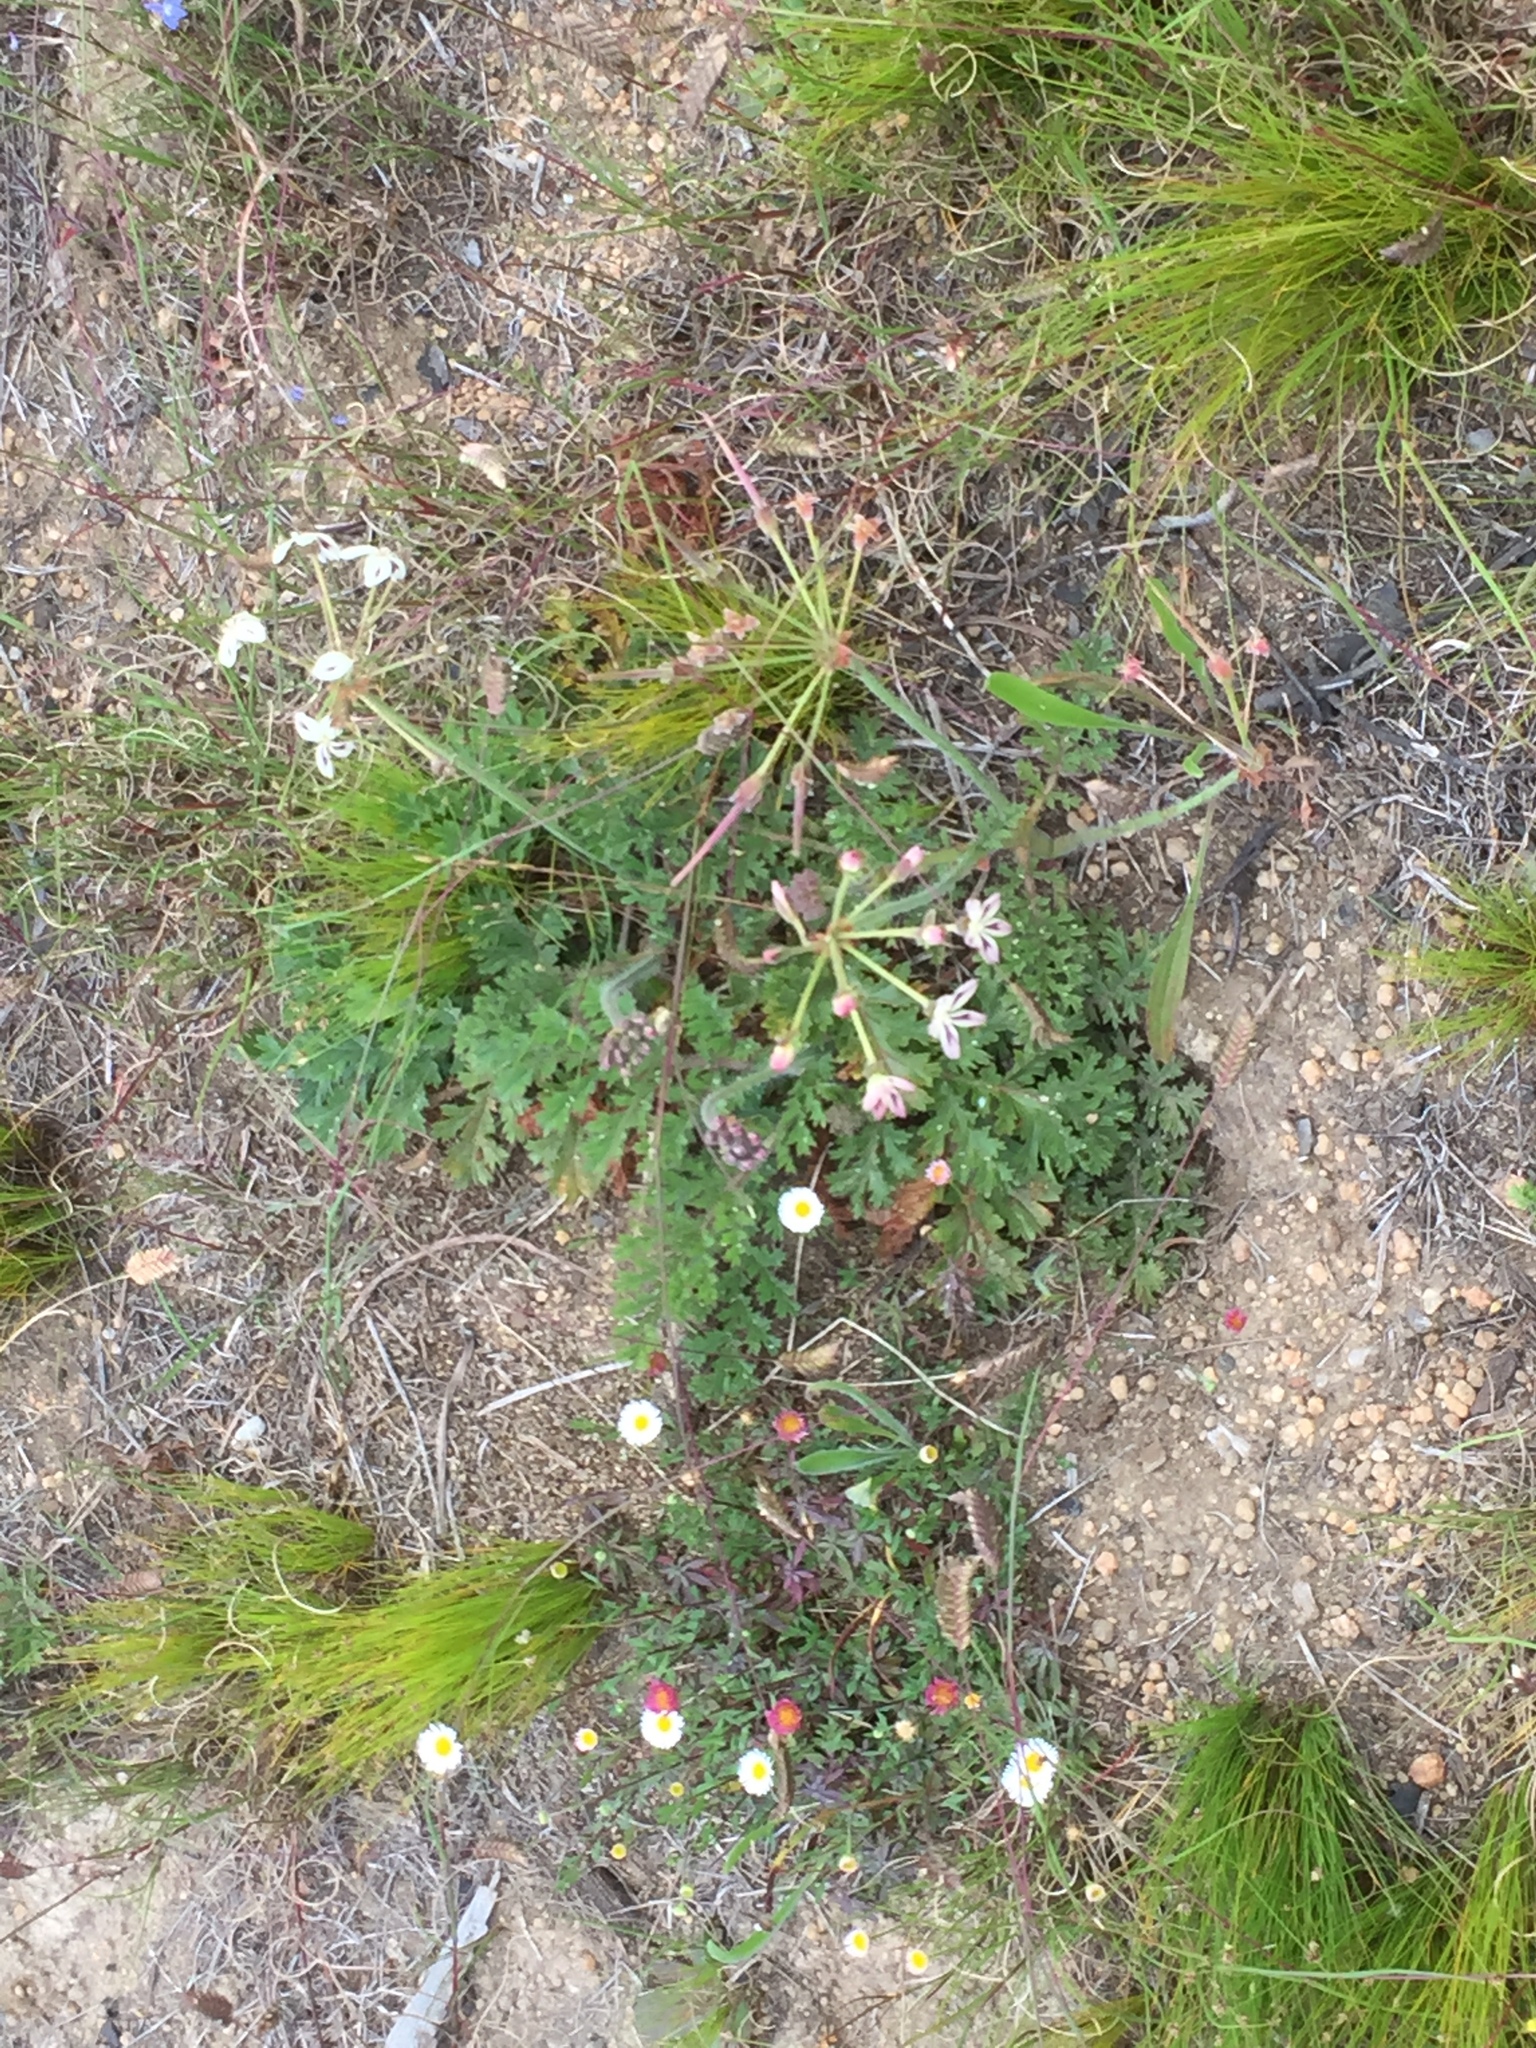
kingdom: Plantae
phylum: Tracheophyta
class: Magnoliopsida
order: Geraniales
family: Geraniaceae
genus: Pelargonium
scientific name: Pelargonium triste
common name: Night-scent pelargonium
